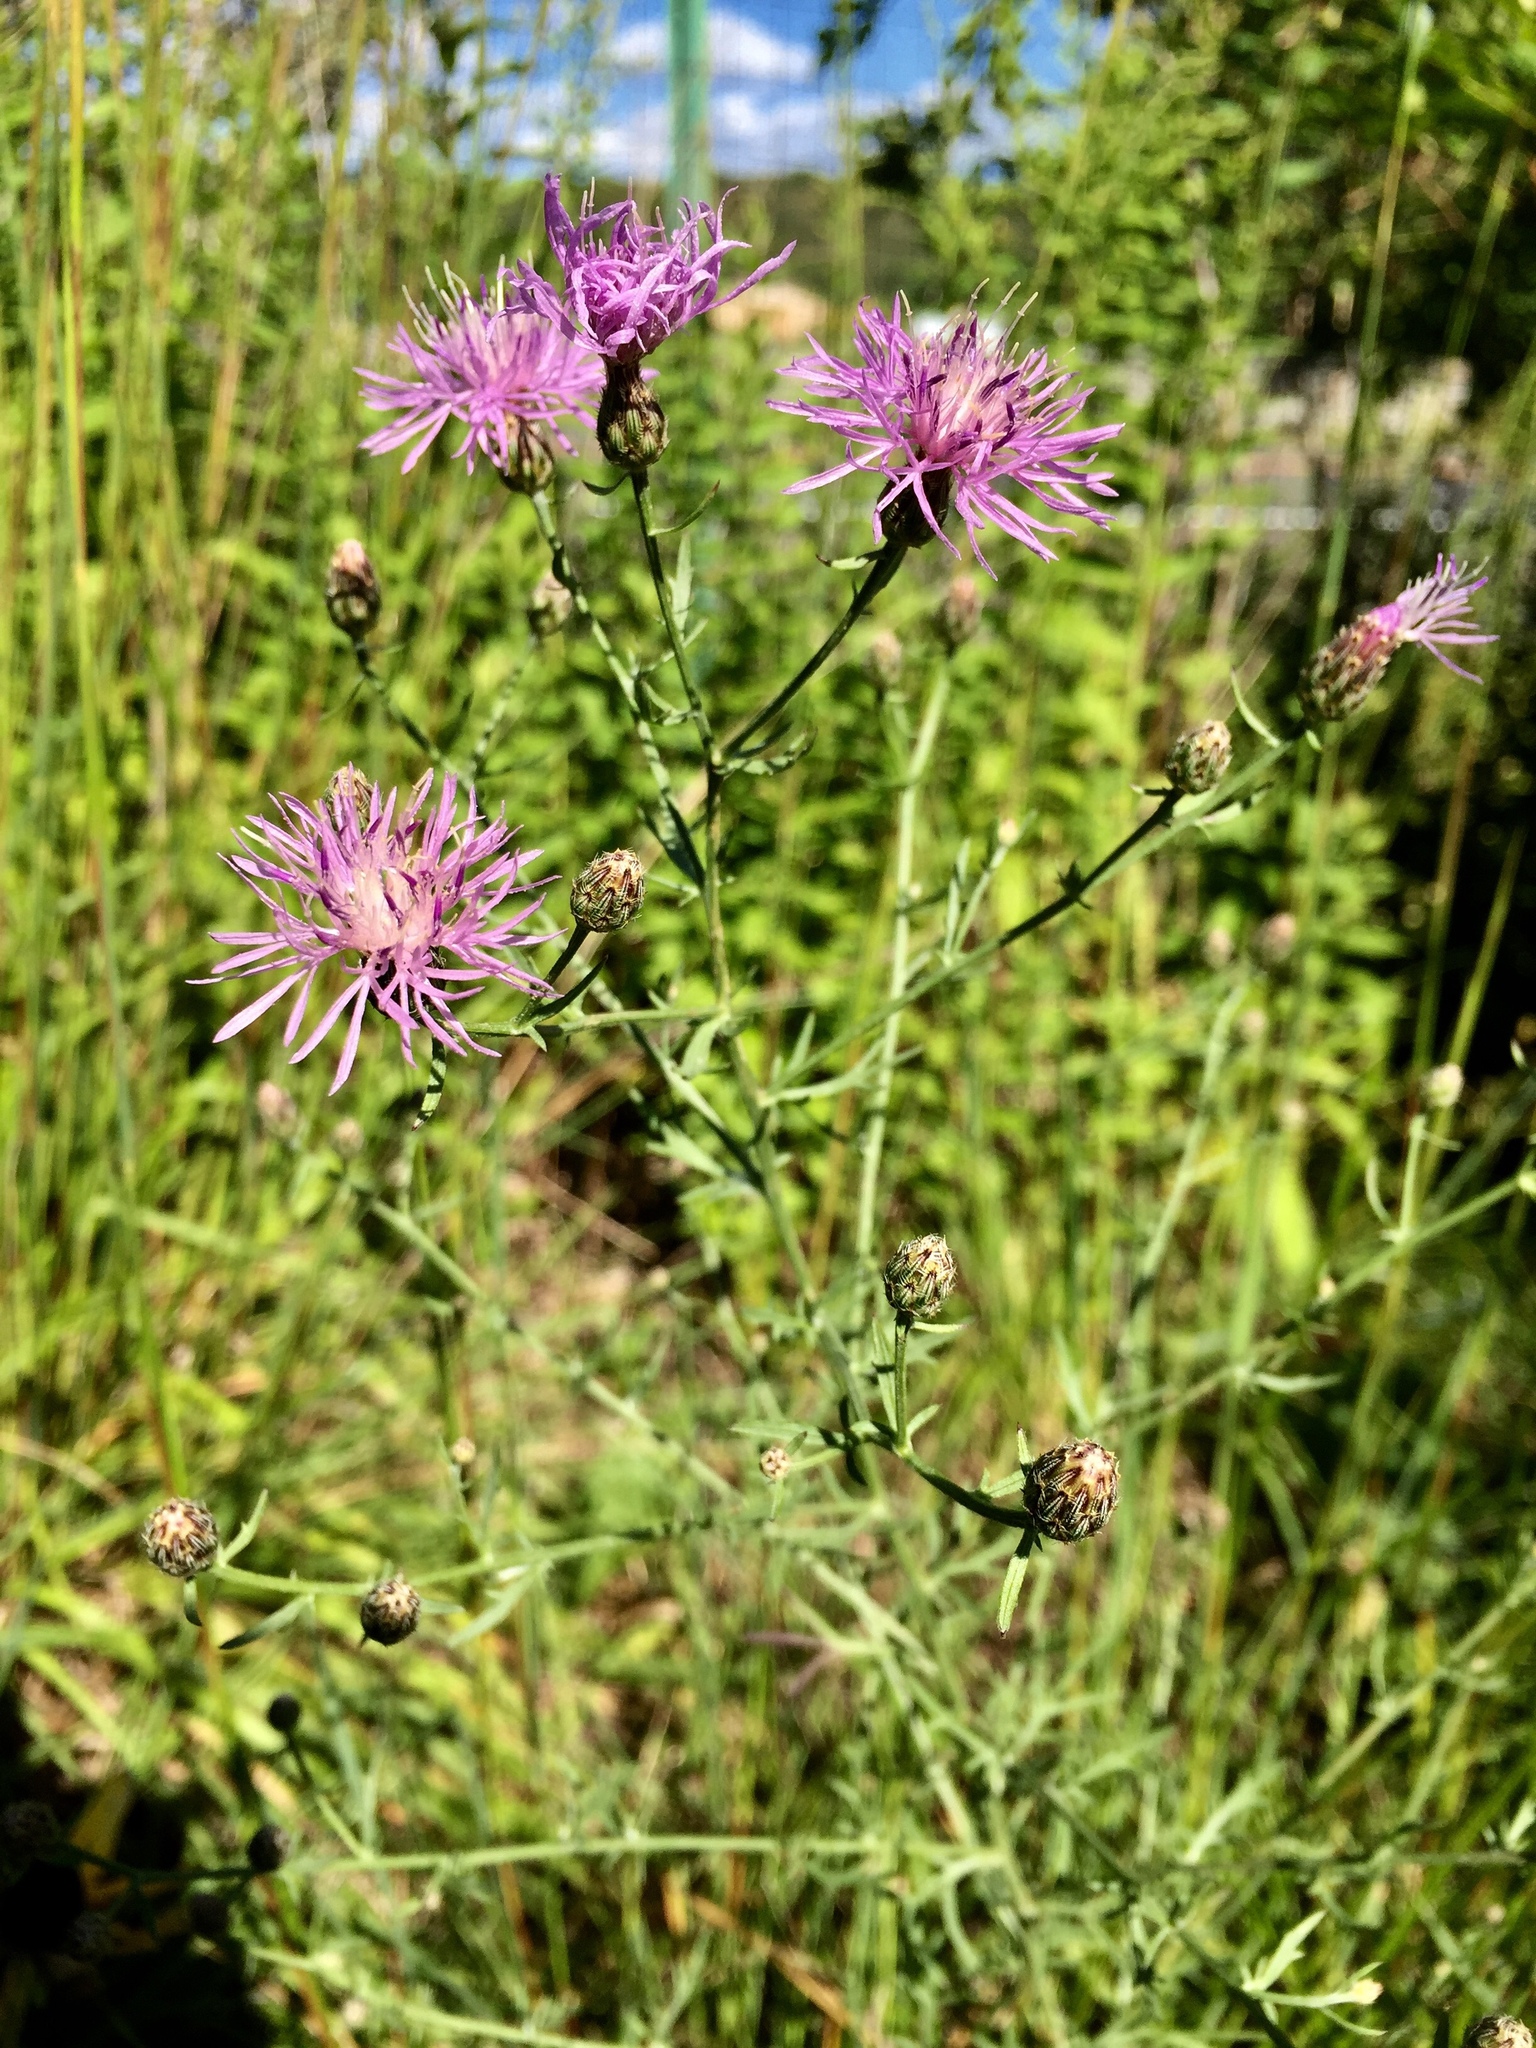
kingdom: Plantae
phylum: Tracheophyta
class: Magnoliopsida
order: Asterales
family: Asteraceae
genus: Centaurea
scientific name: Centaurea stoebe
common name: Spotted knapweed
